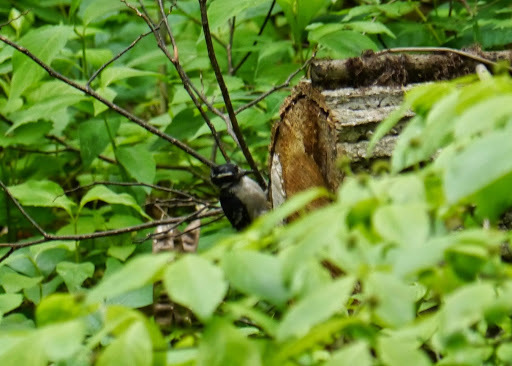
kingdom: Animalia
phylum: Chordata
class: Aves
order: Piciformes
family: Picidae
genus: Dryobates
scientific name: Dryobates pubescens
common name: Downy woodpecker
